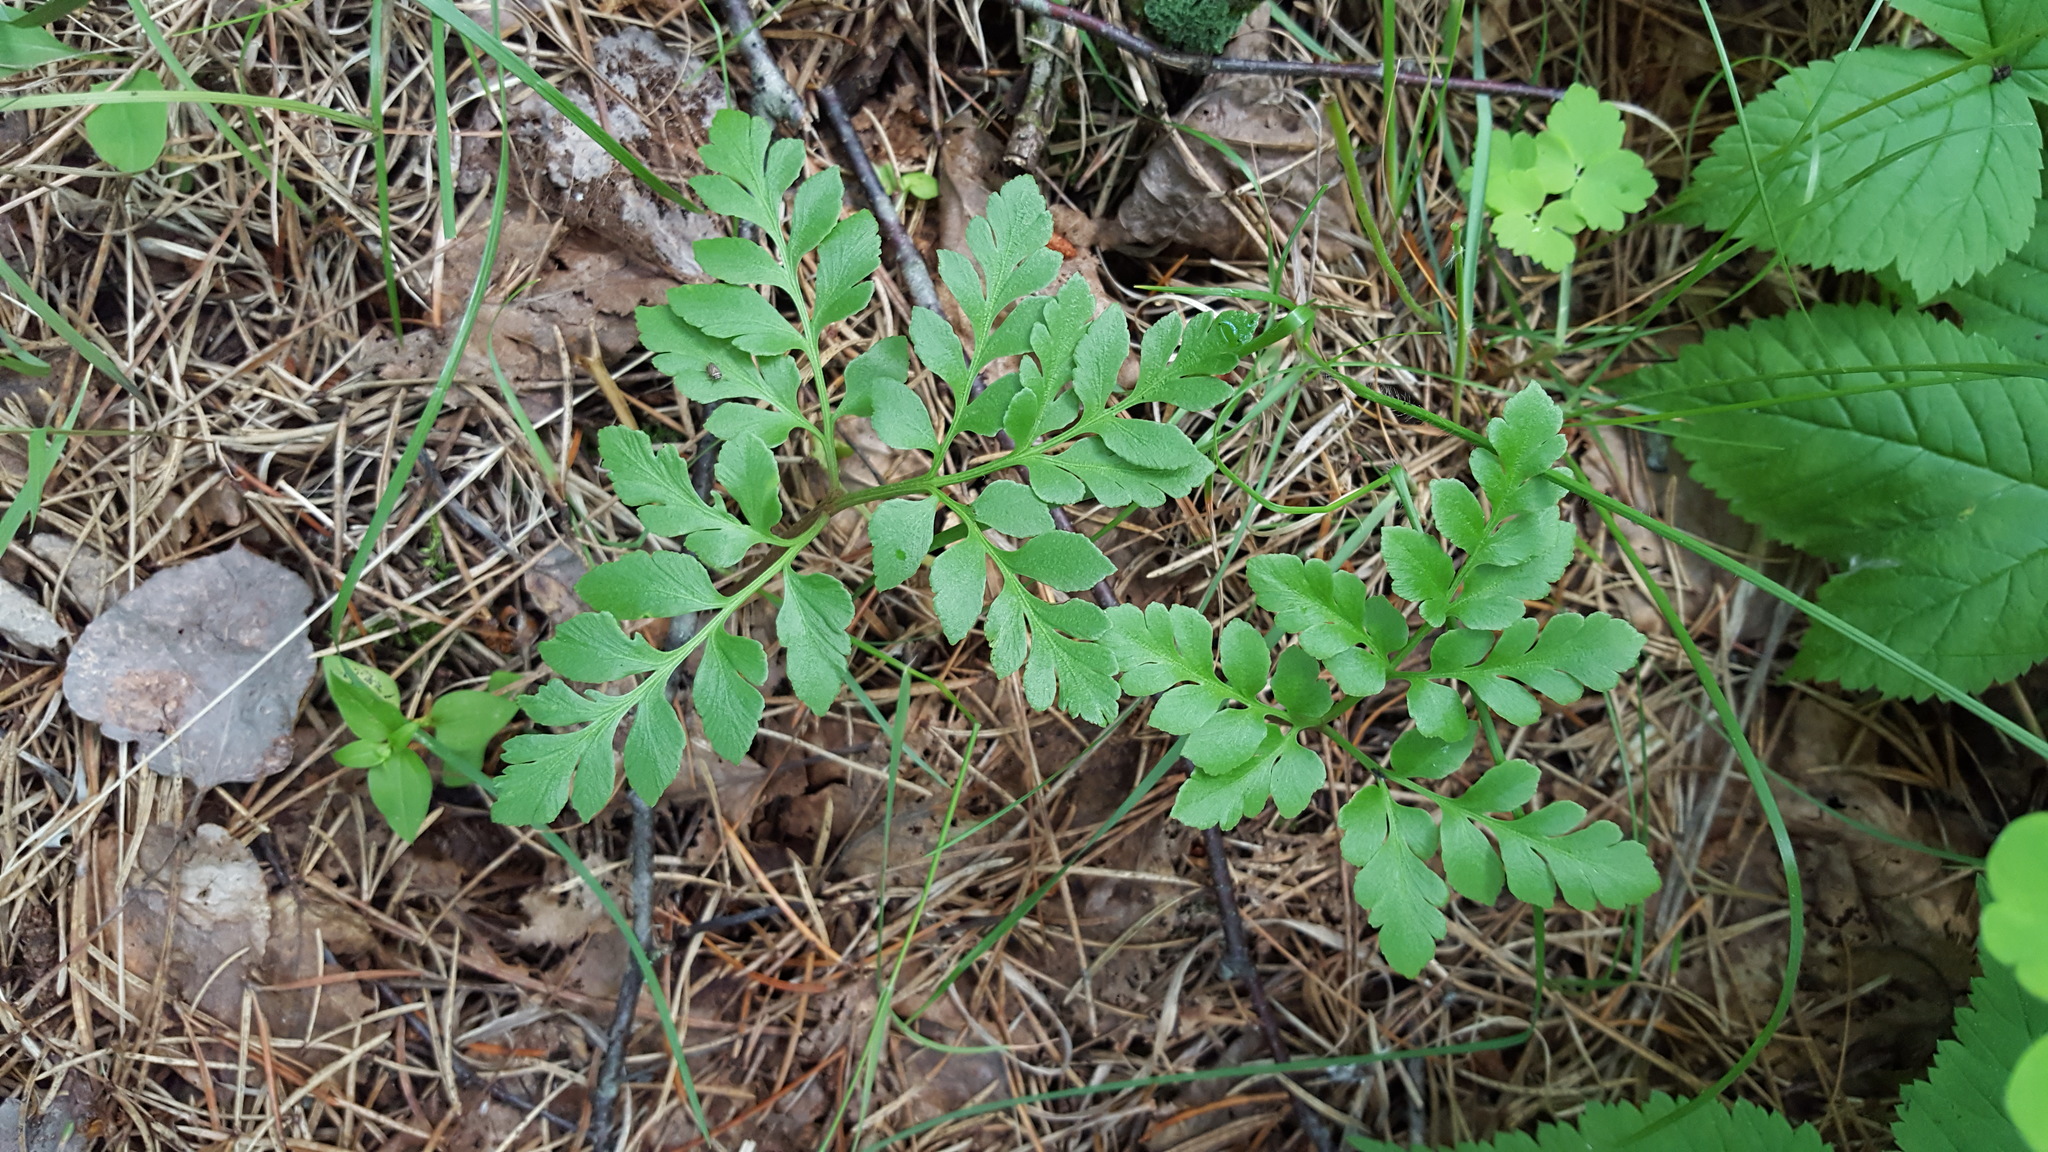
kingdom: Plantae
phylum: Tracheophyta
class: Polypodiopsida
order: Ophioglossales
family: Ophioglossaceae
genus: Sceptridium
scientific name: Sceptridium multifidum
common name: Leathery grape fern
